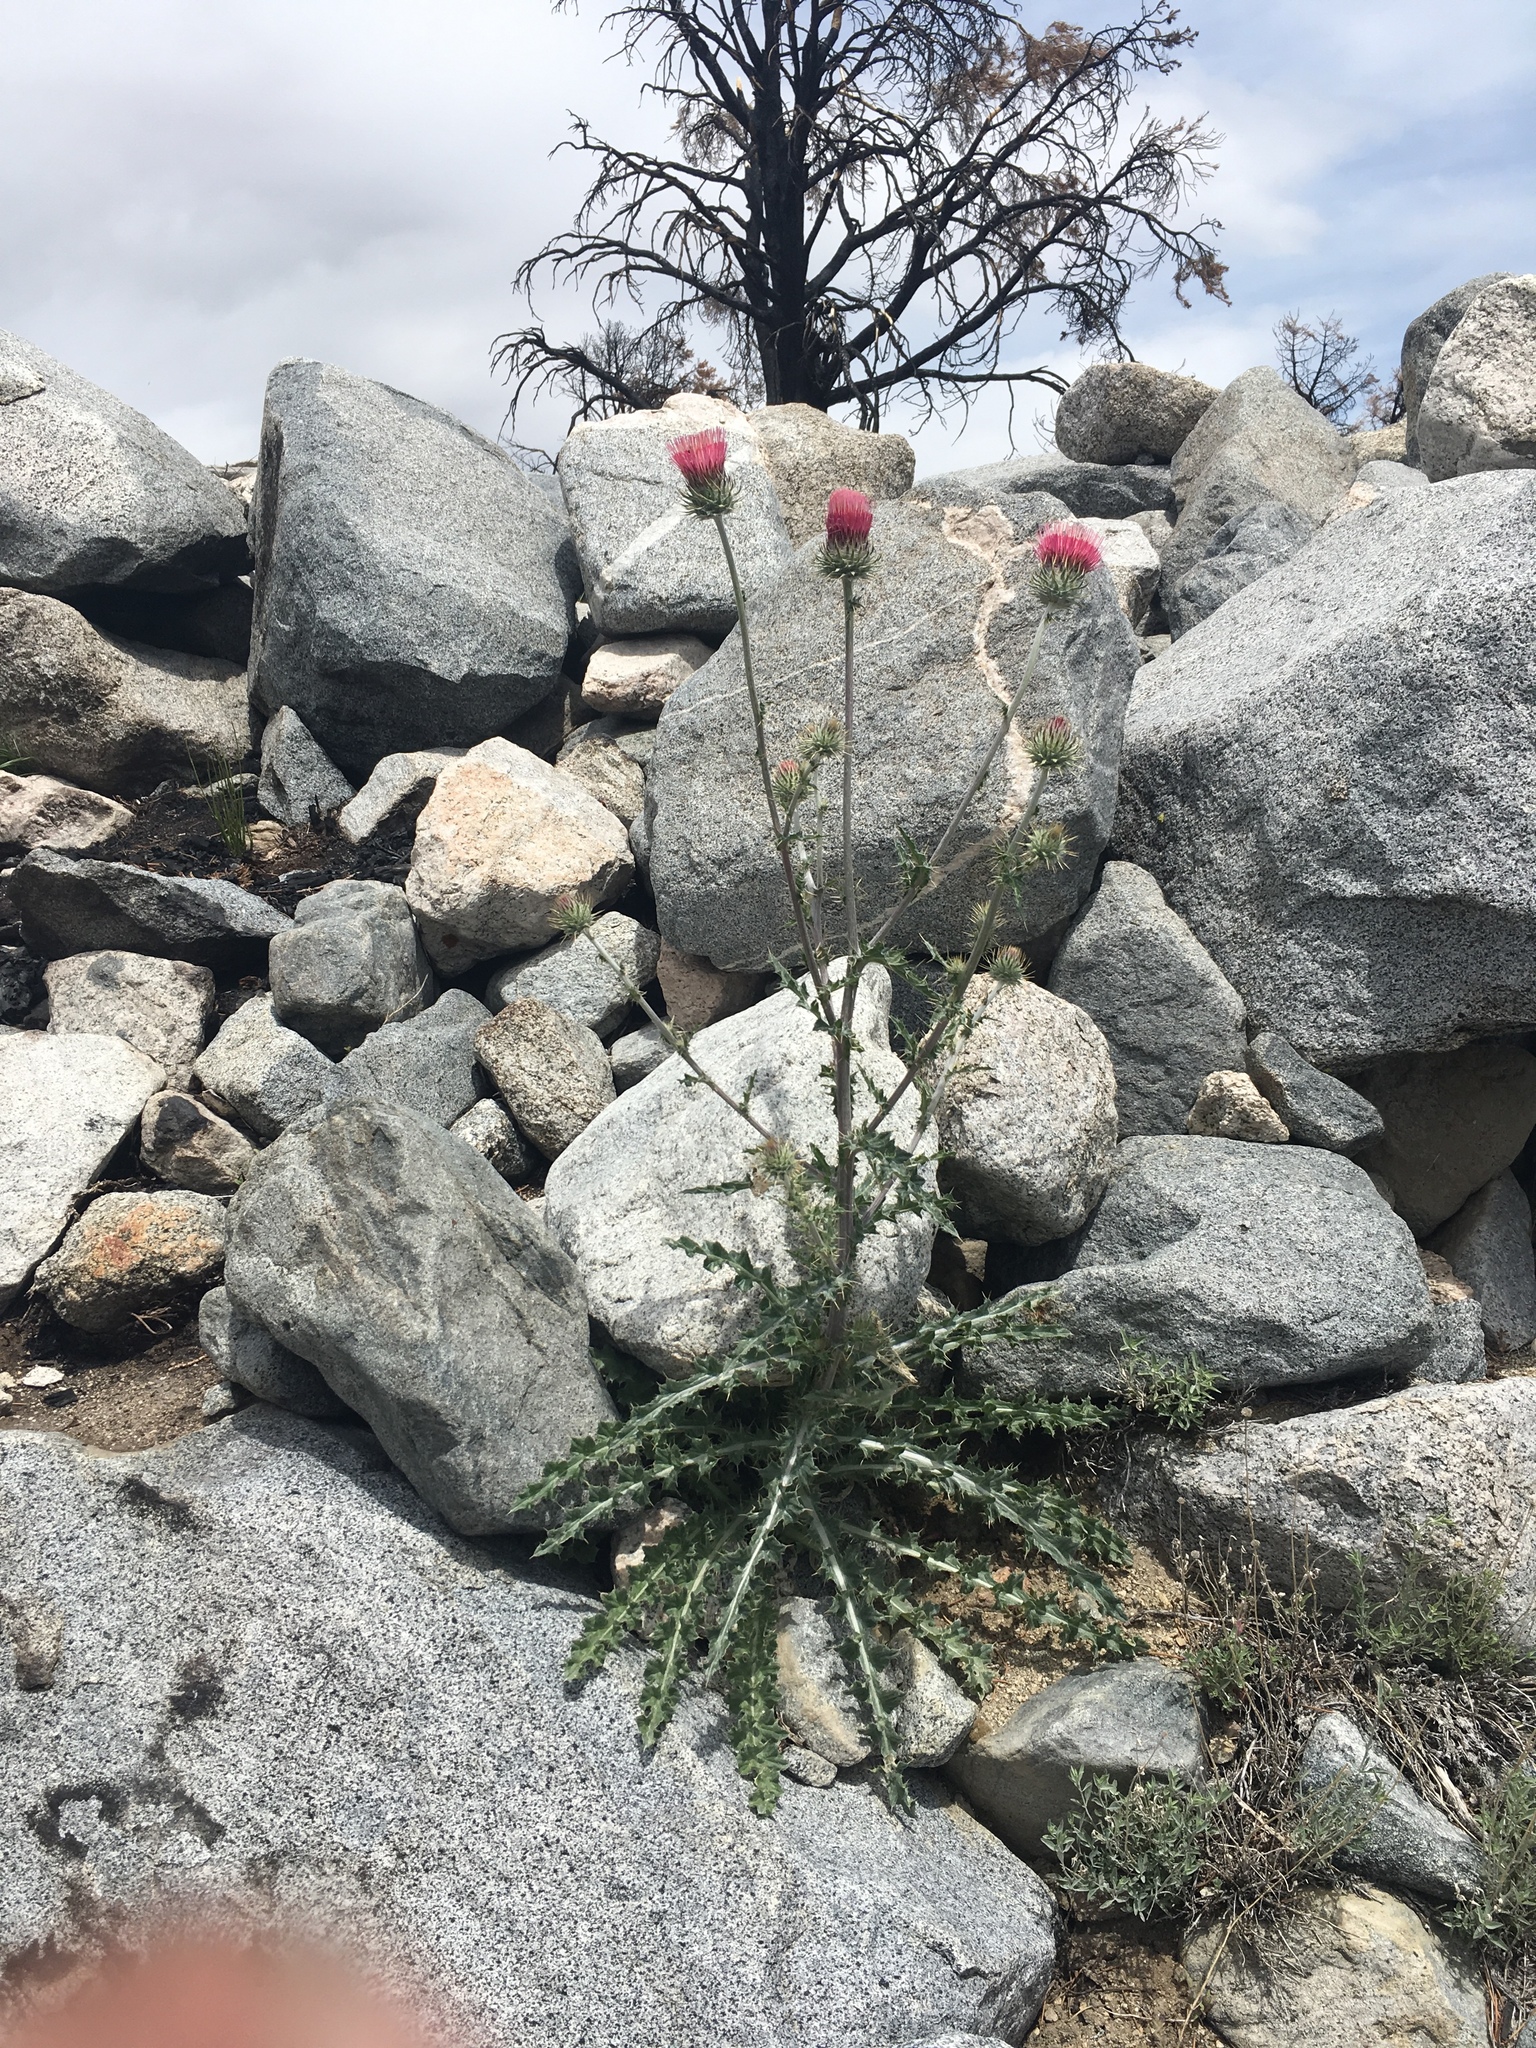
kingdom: Plantae
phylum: Tracheophyta
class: Magnoliopsida
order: Asterales
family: Asteraceae
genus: Cirsium
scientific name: Cirsium occidentale
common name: Western thistle
